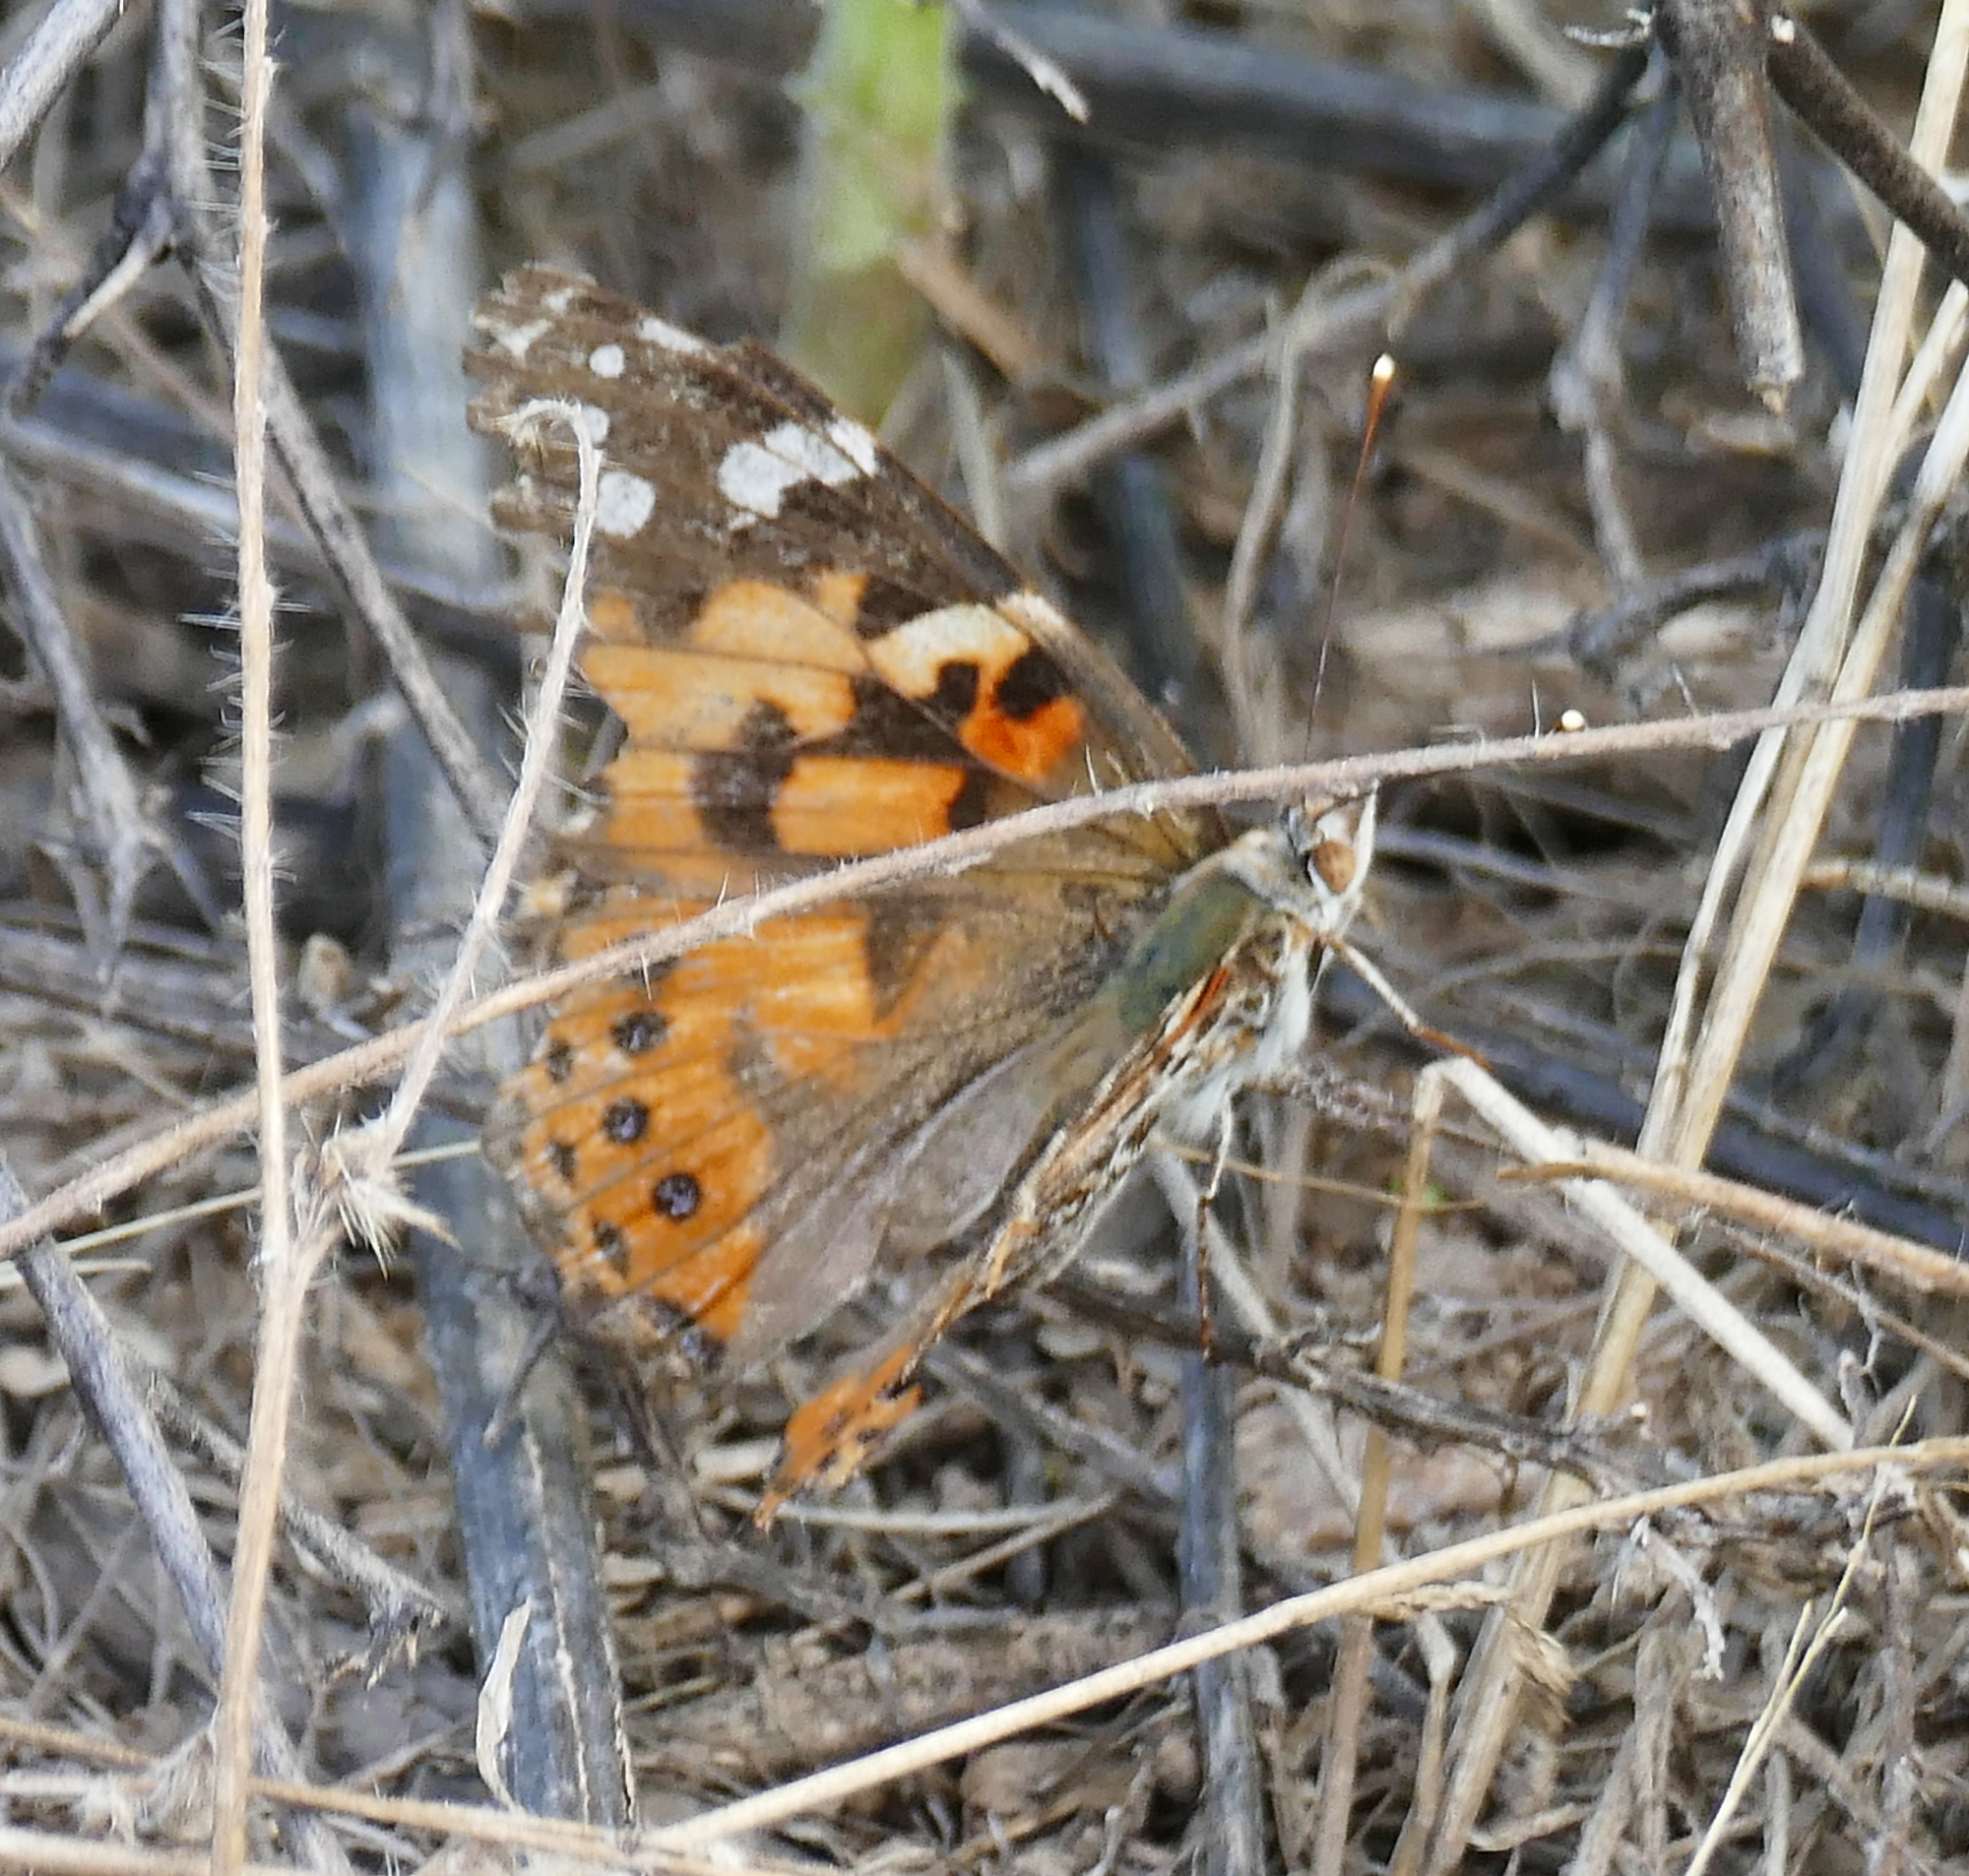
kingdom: Animalia
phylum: Arthropoda
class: Insecta
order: Lepidoptera
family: Nymphalidae
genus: Vanessa
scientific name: Vanessa cardui
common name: Painted lady
